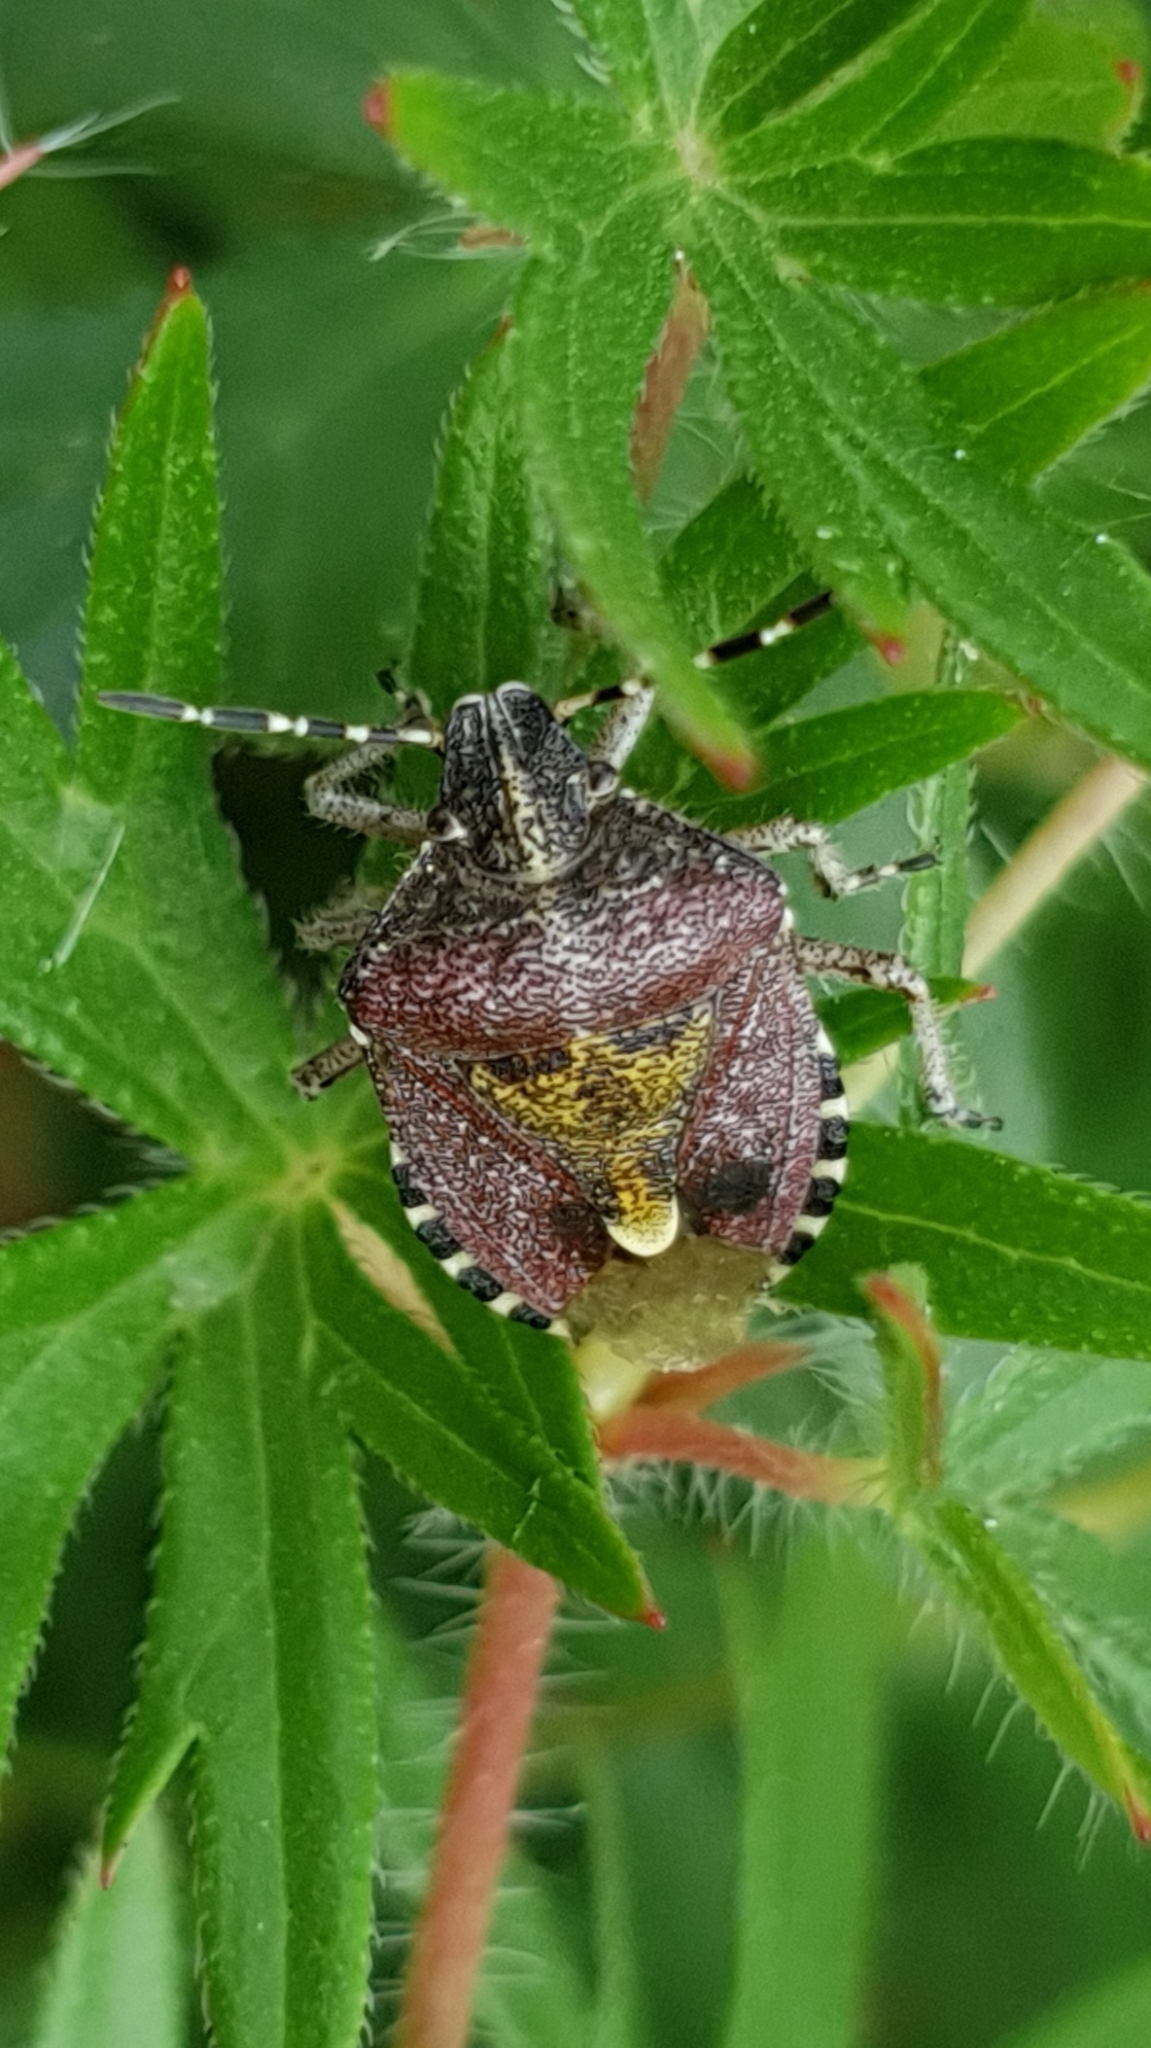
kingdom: Animalia
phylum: Arthropoda
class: Insecta
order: Hemiptera
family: Pentatomidae
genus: Dolycoris
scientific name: Dolycoris baccarum
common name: Sloe bug
